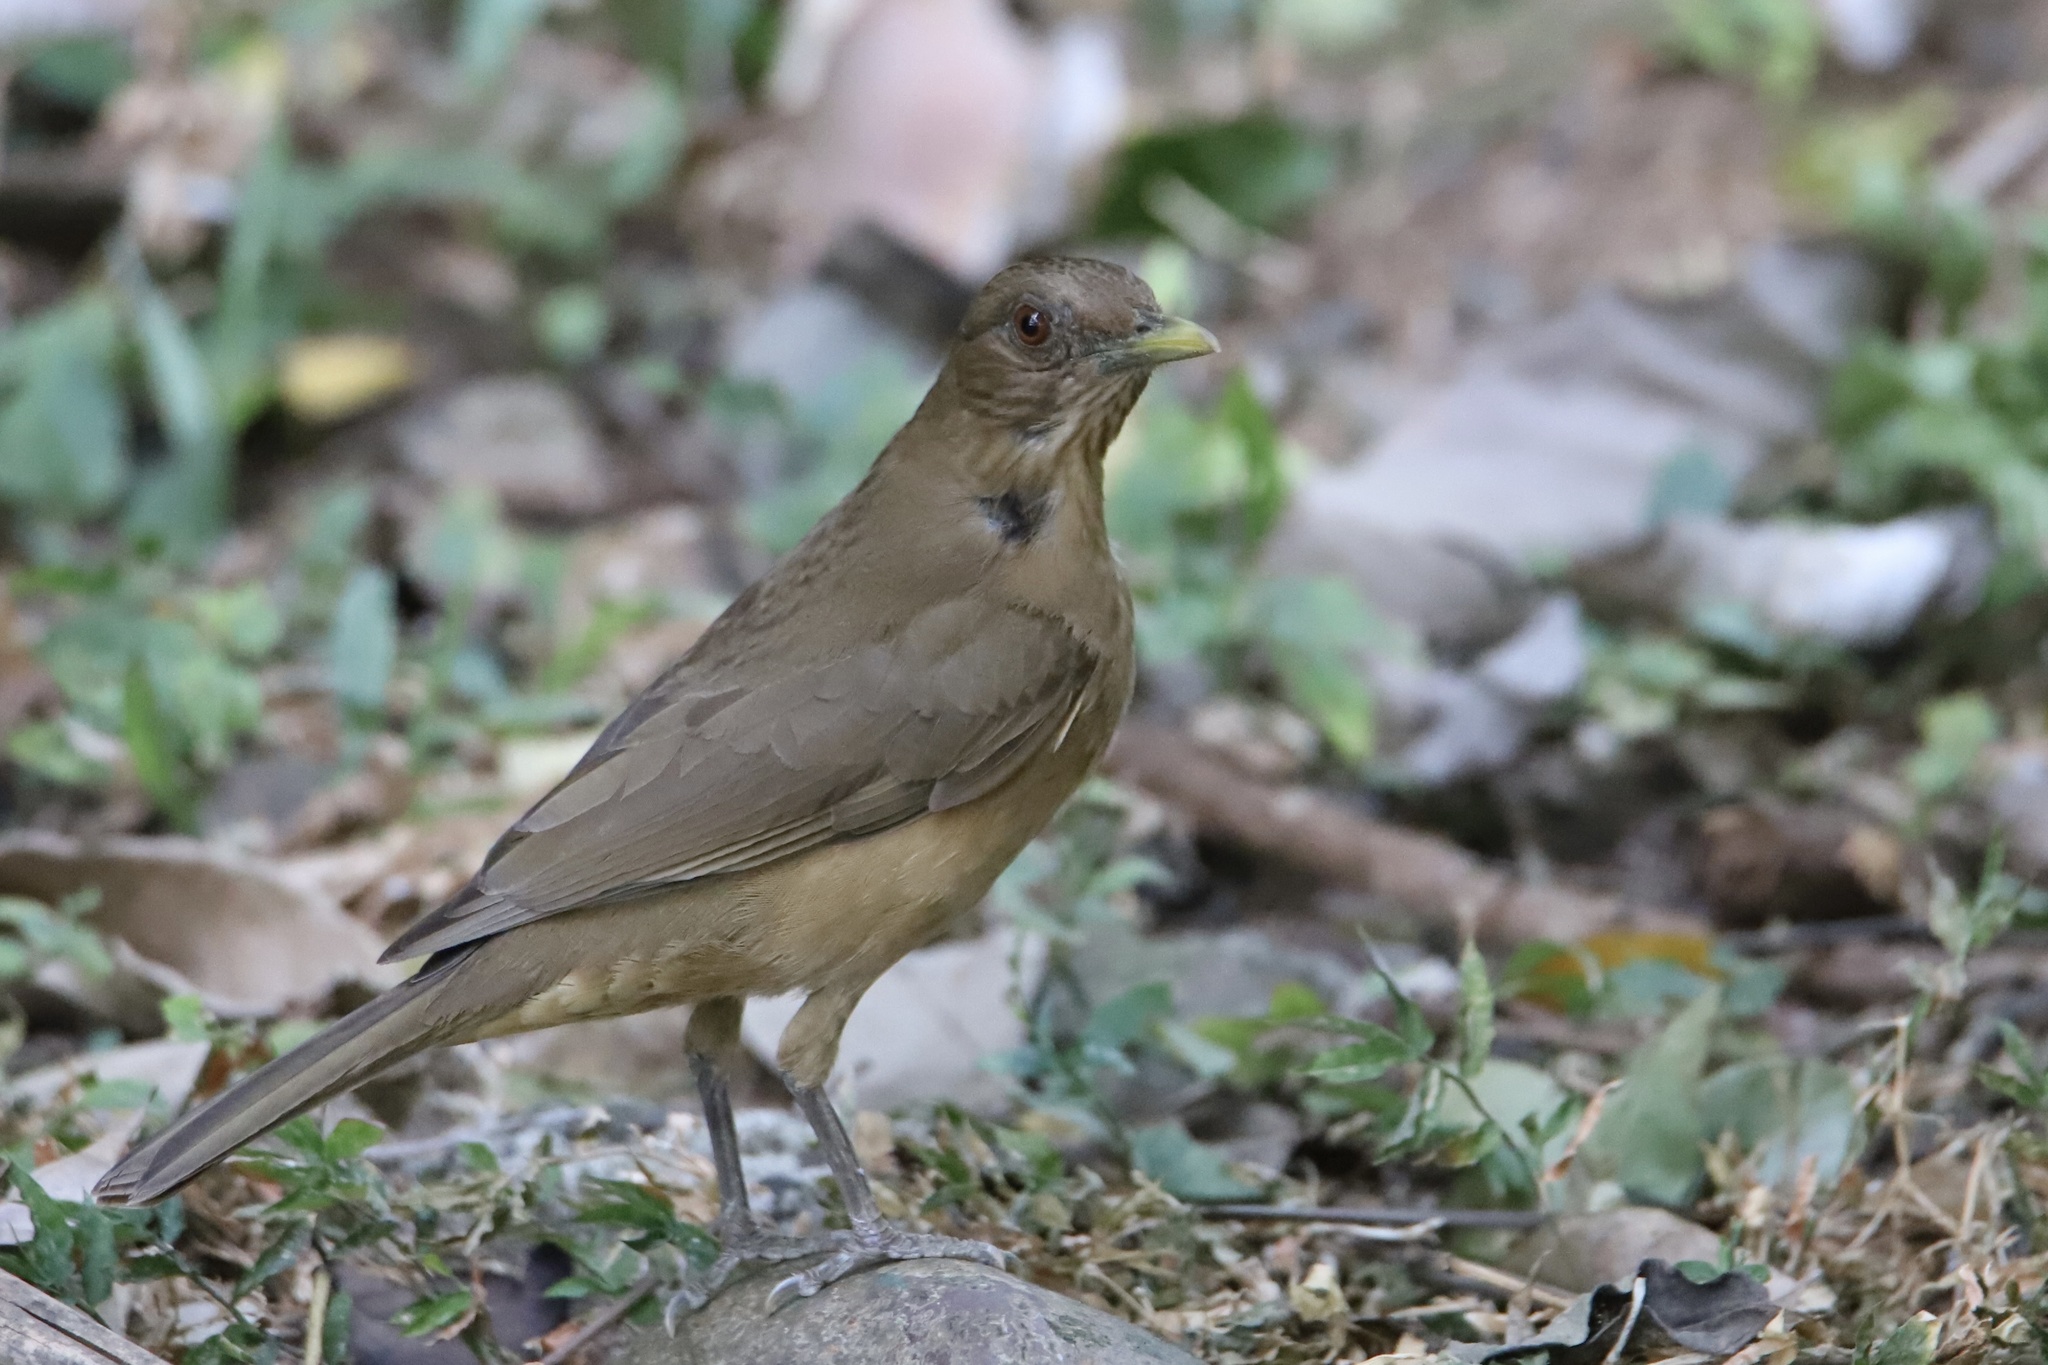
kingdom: Animalia
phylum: Chordata
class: Aves
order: Passeriformes
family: Turdidae
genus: Turdus
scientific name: Turdus grayi
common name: Clay-colored thrush
